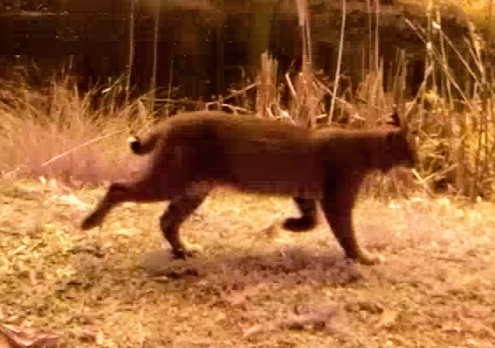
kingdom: Animalia
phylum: Chordata
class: Mammalia
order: Carnivora
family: Felidae
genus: Lynx
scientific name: Lynx rufus
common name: Bobcat
